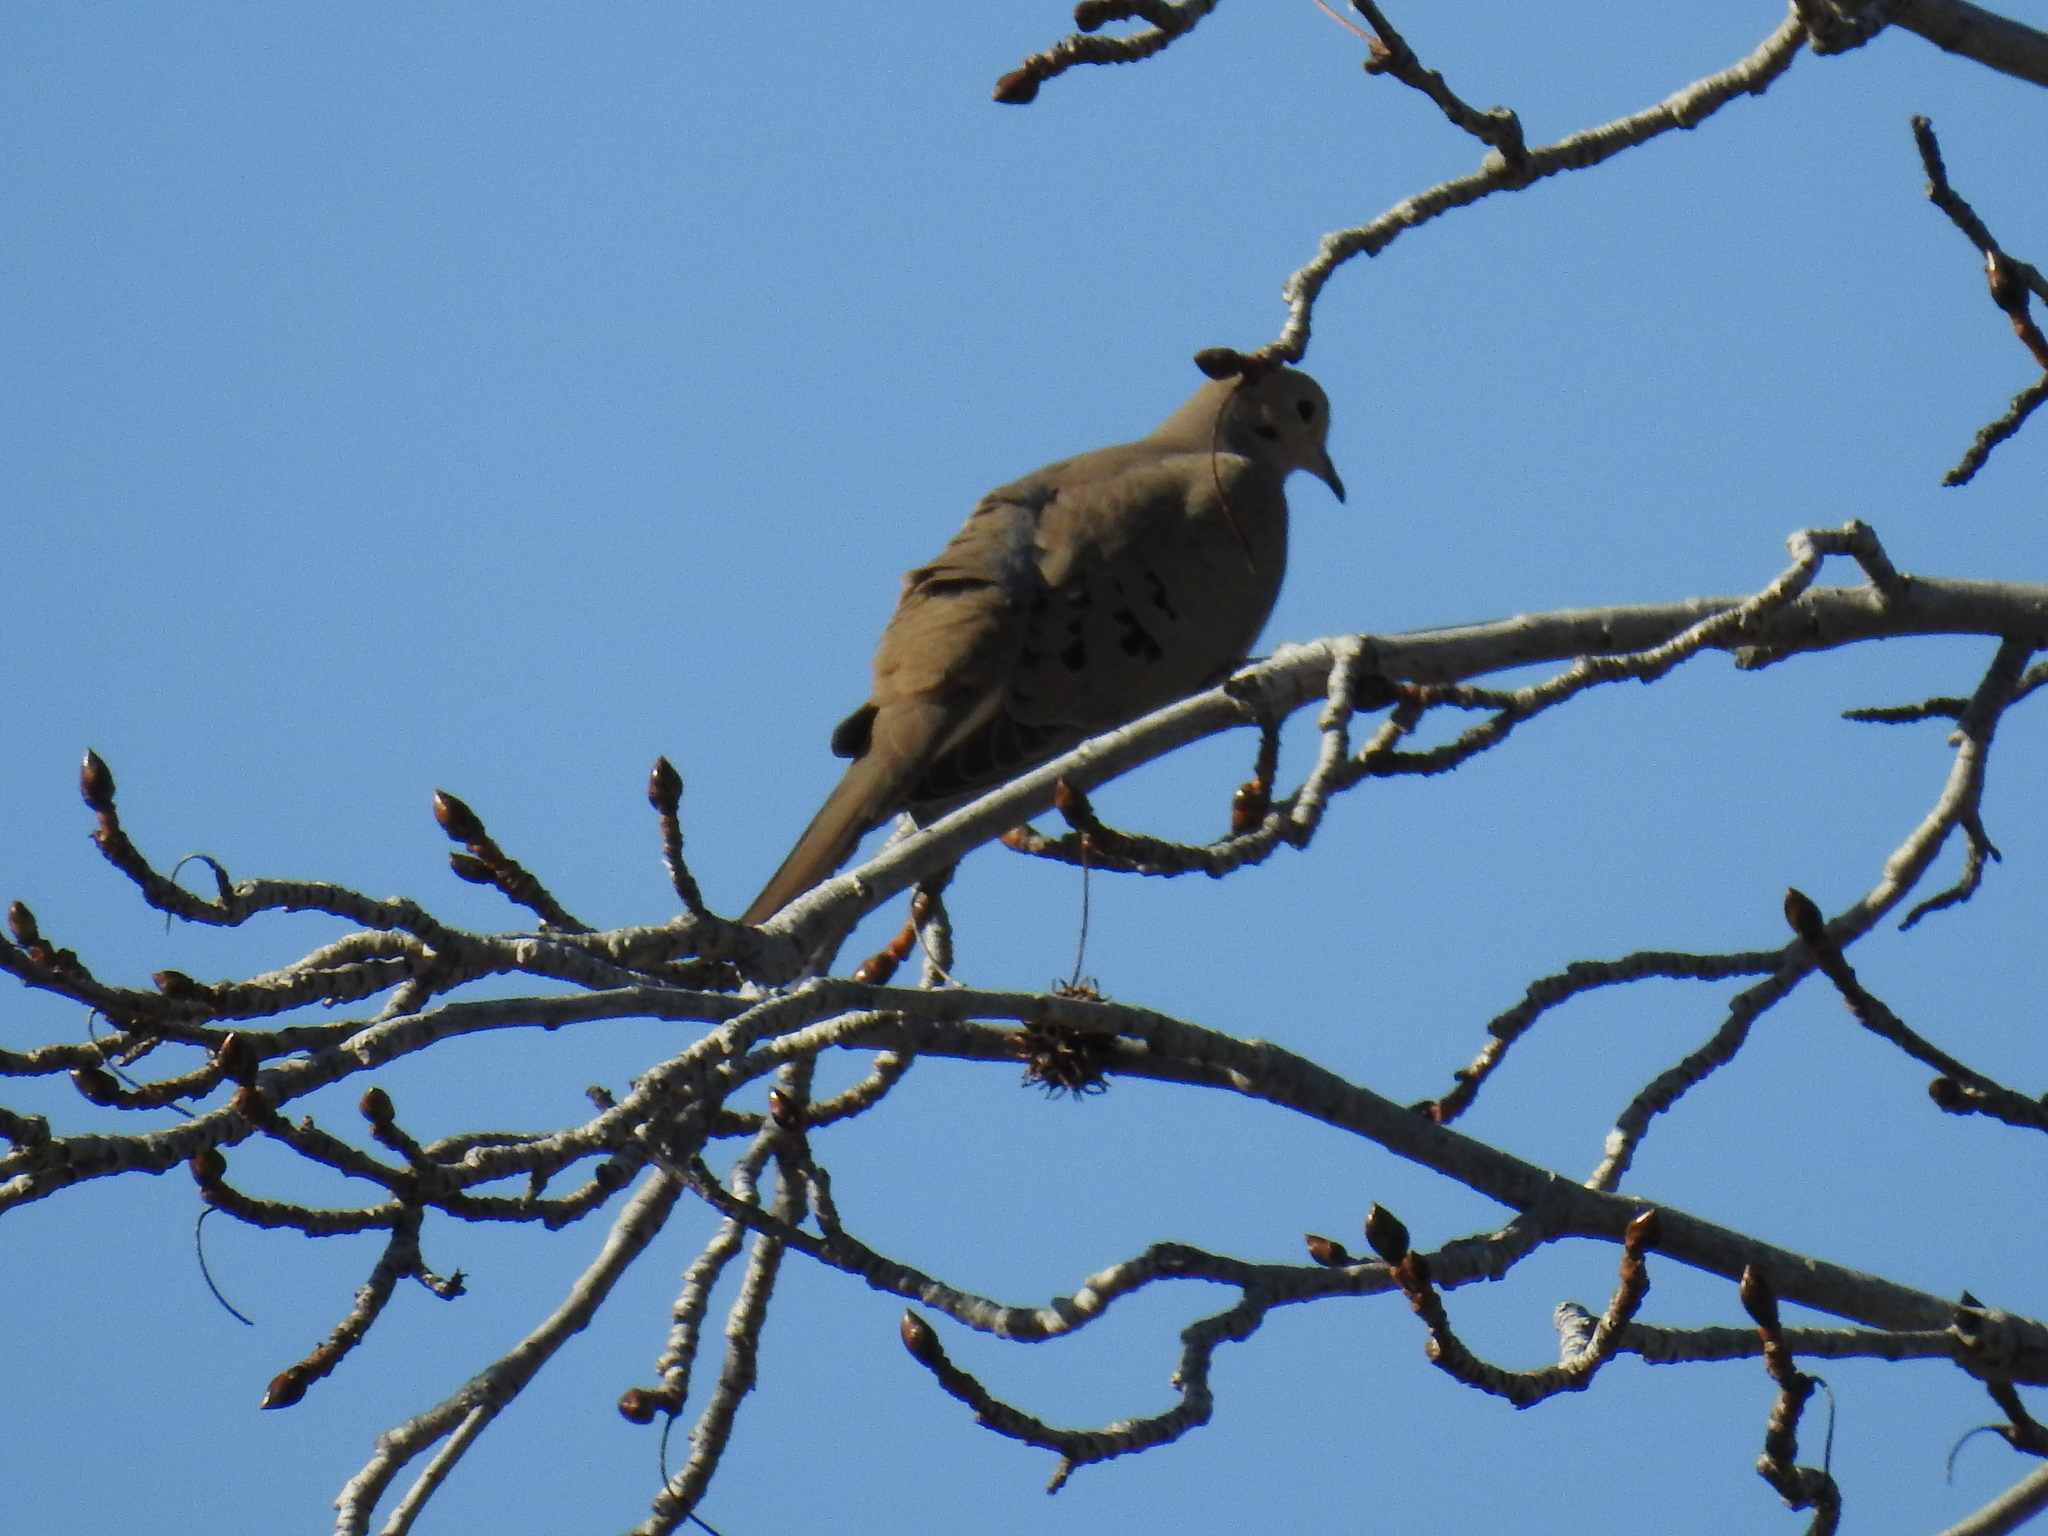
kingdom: Animalia
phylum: Chordata
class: Aves
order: Columbiformes
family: Columbidae
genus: Zenaida
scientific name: Zenaida macroura
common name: Mourning dove
